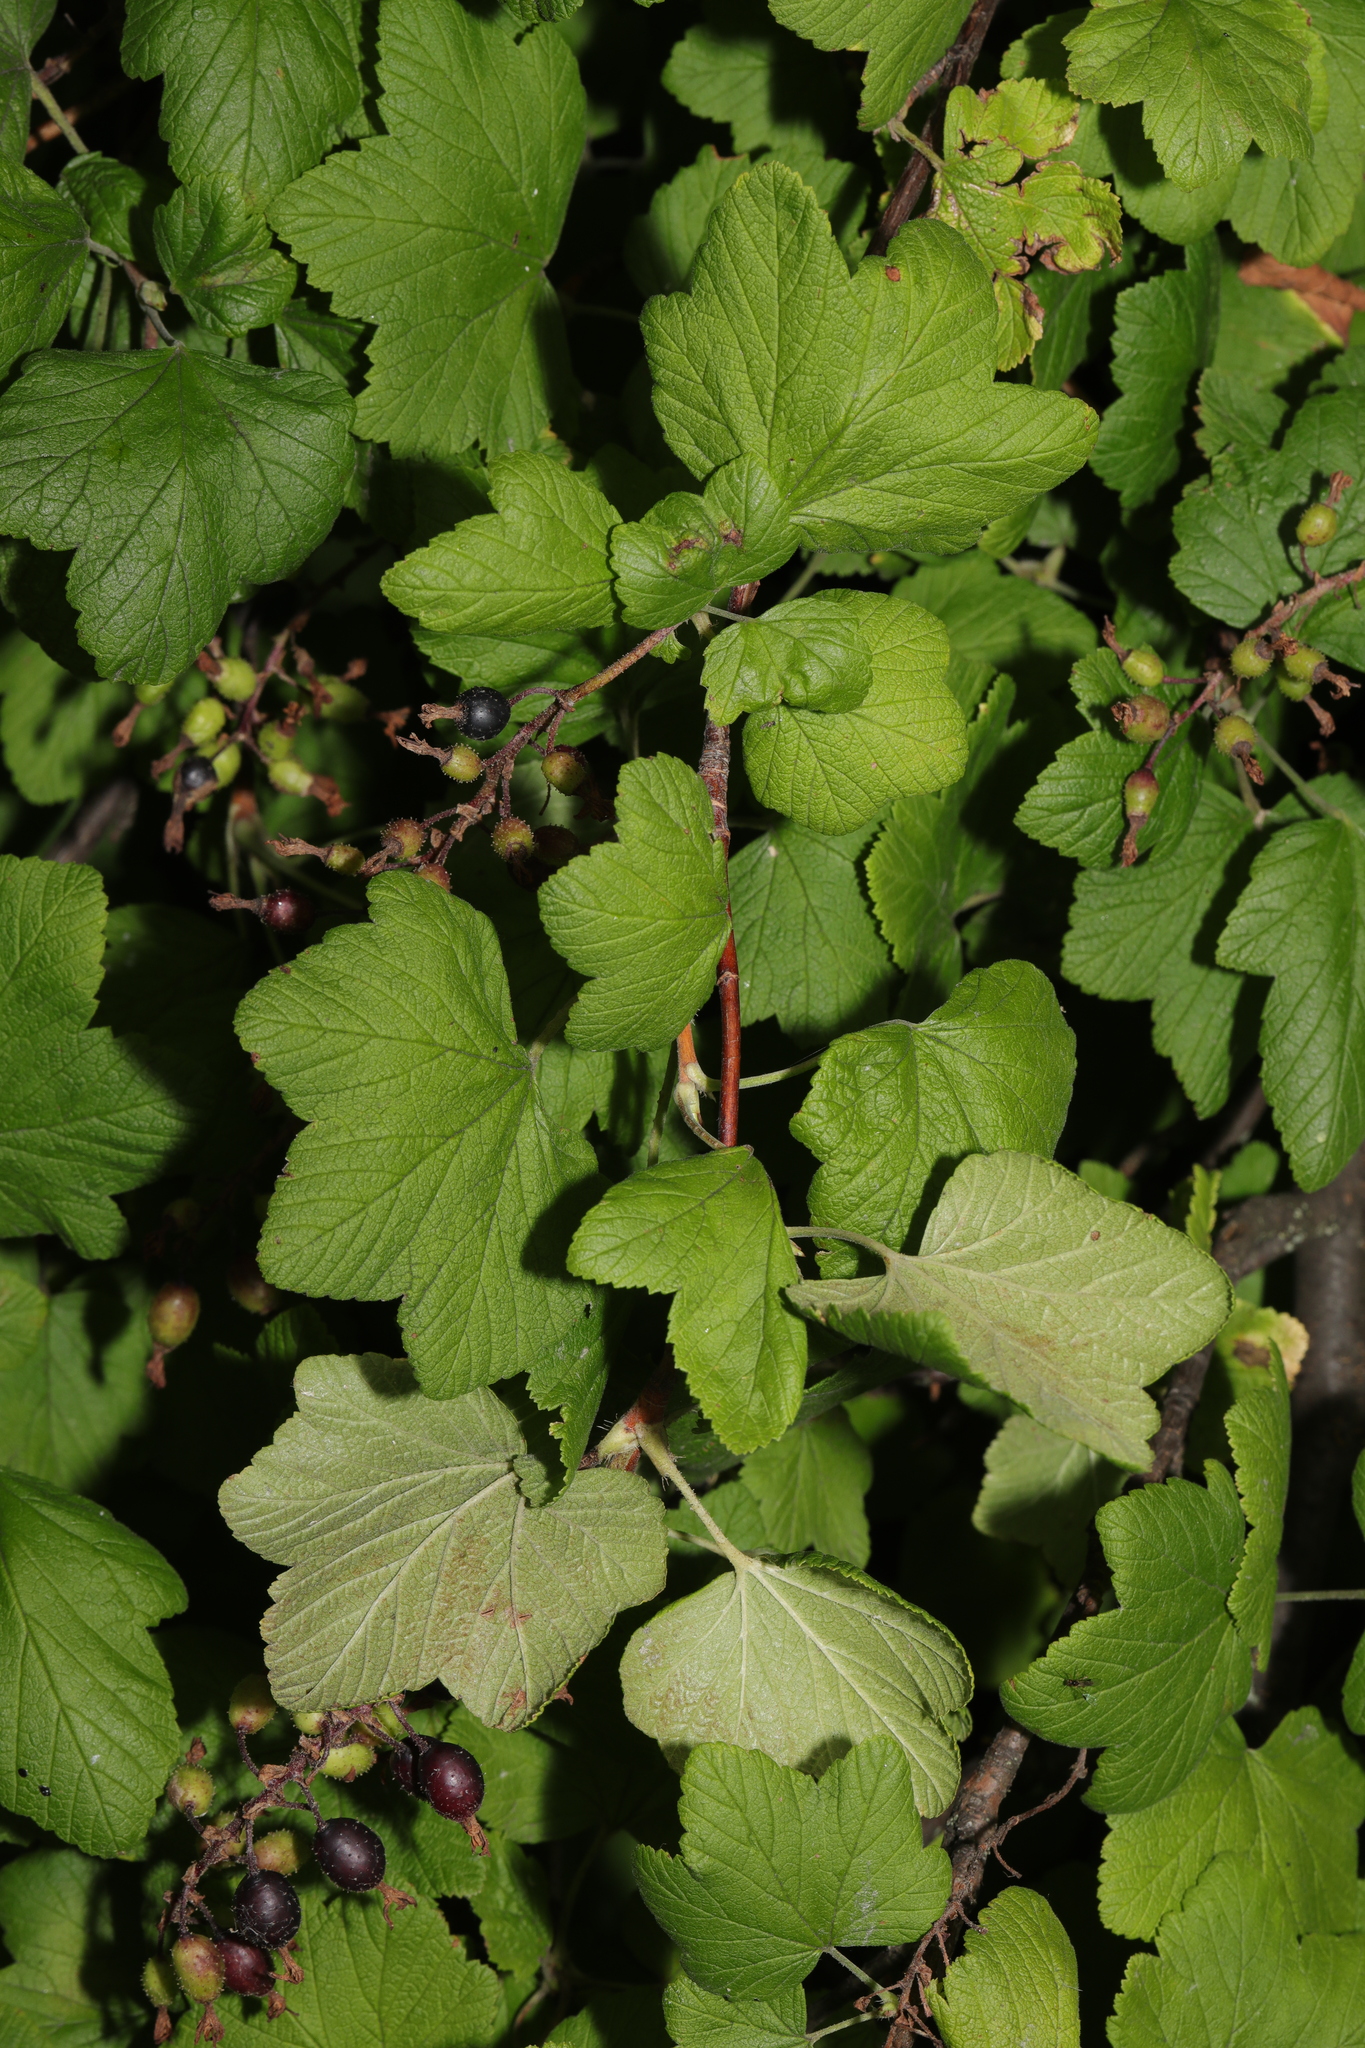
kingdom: Plantae
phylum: Tracheophyta
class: Magnoliopsida
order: Saxifragales
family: Grossulariaceae
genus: Ribes
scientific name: Ribes sanguineum
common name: Flowering currant
